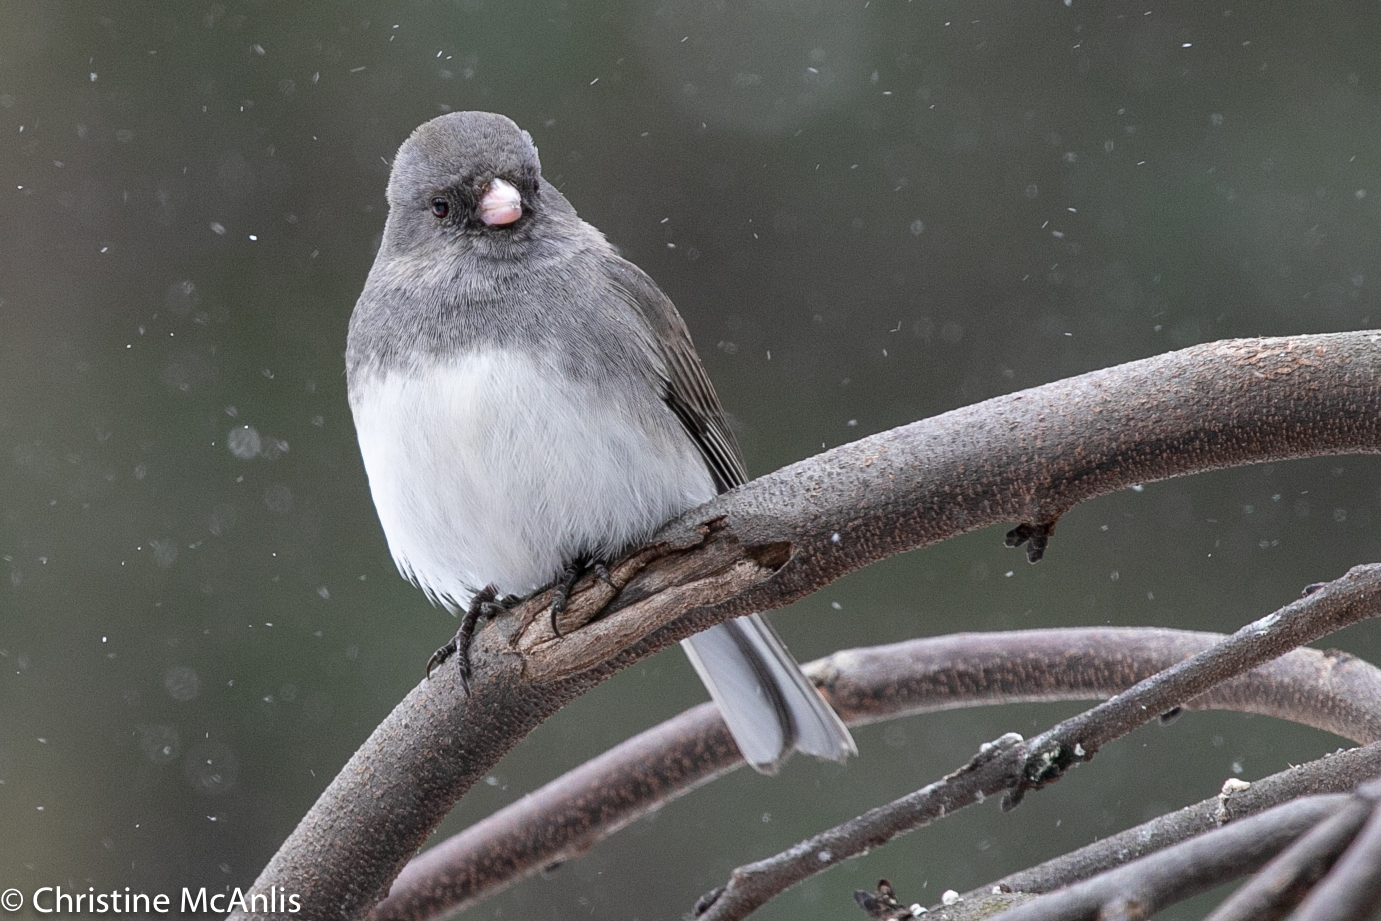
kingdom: Animalia
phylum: Chordata
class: Aves
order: Passeriformes
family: Passerellidae
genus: Junco
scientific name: Junco hyemalis
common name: Dark-eyed junco
